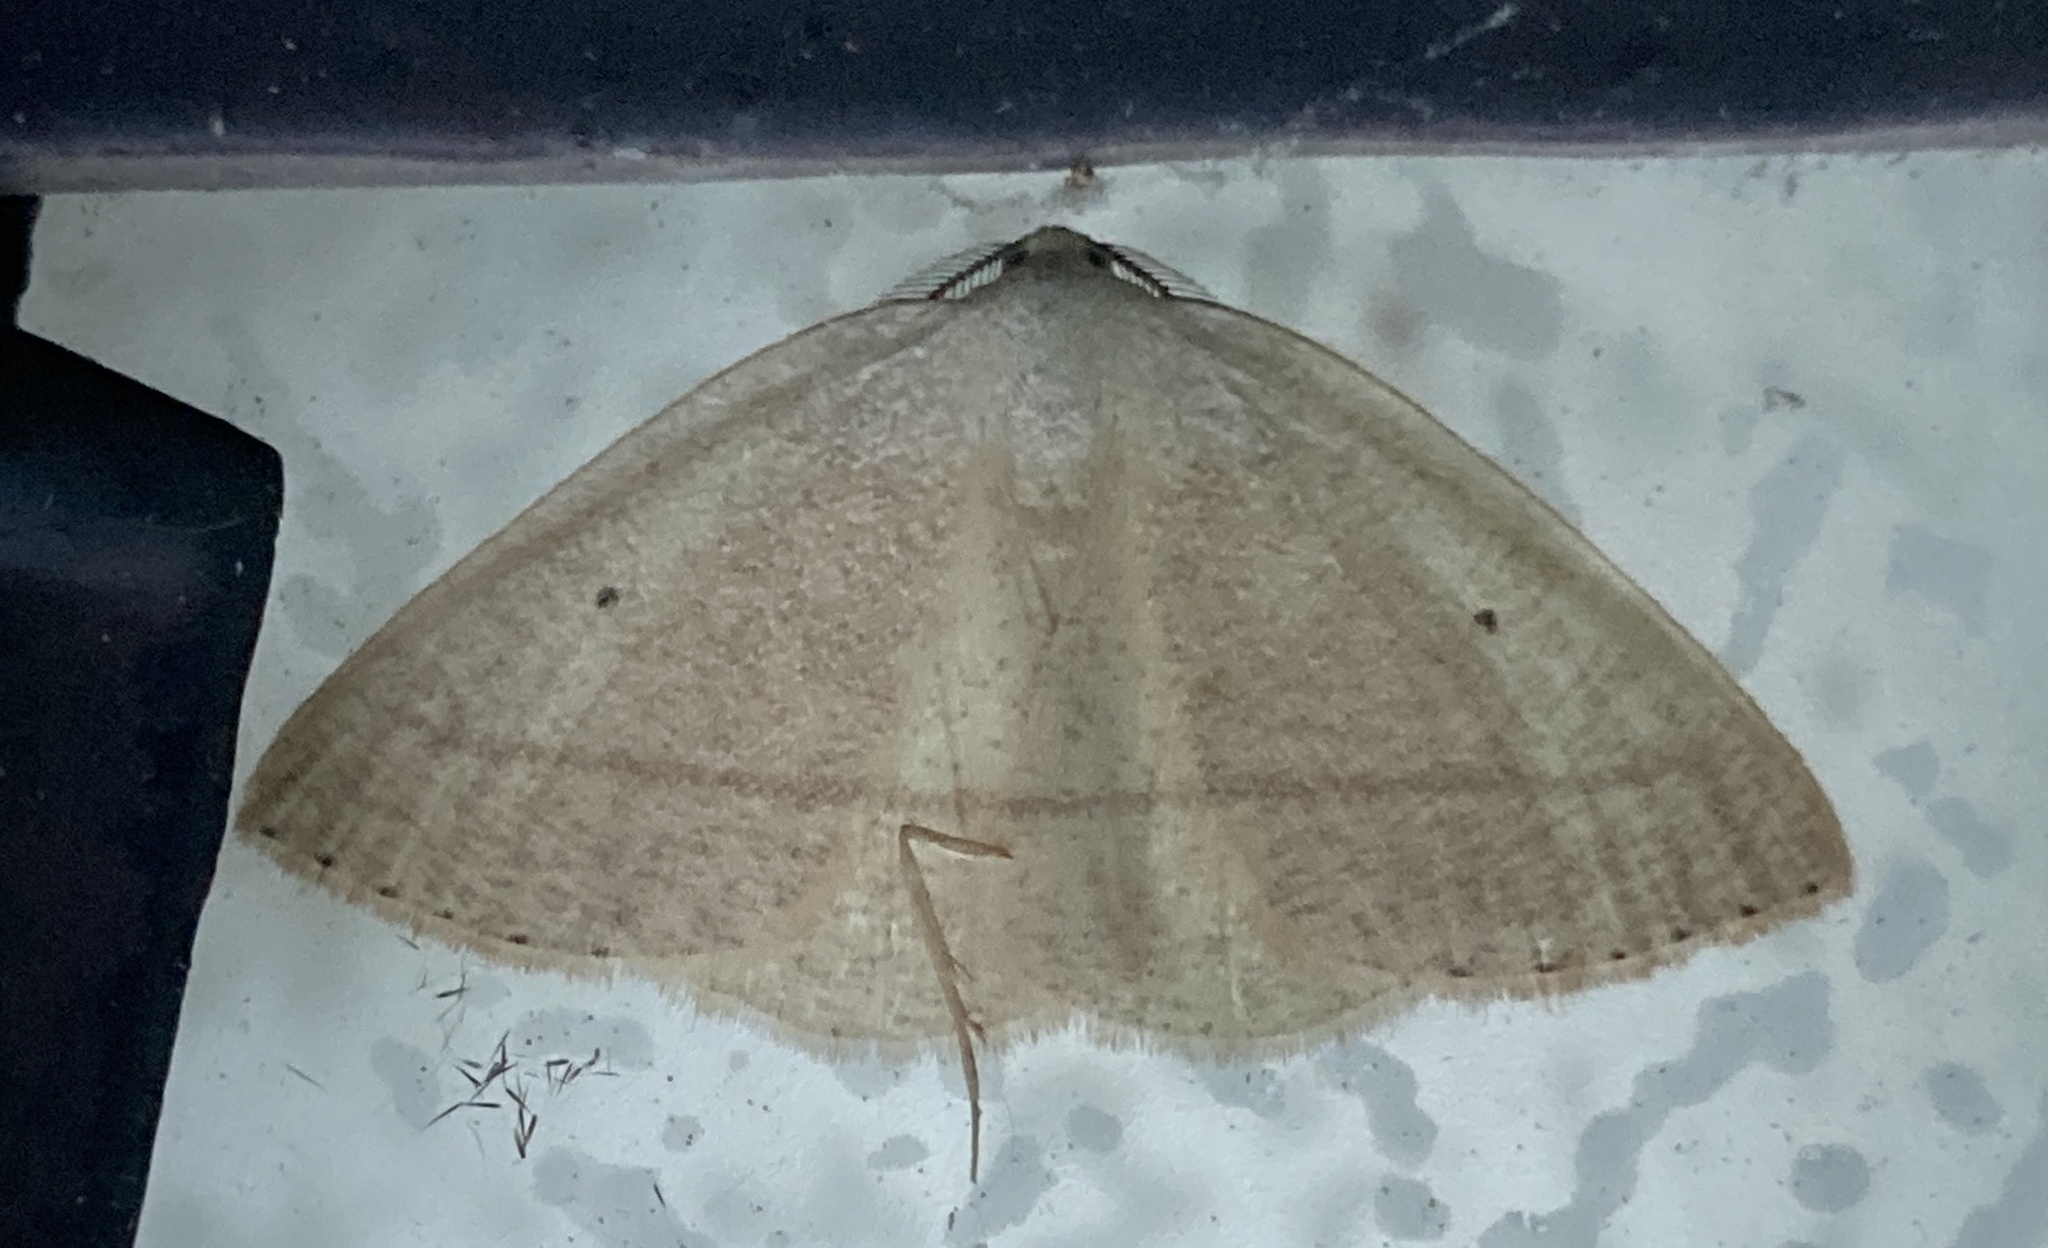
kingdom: Animalia
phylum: Arthropoda
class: Insecta
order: Lepidoptera
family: Geometridae
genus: Eudrepanulatrix
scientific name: Eudrepanulatrix rectifascia
